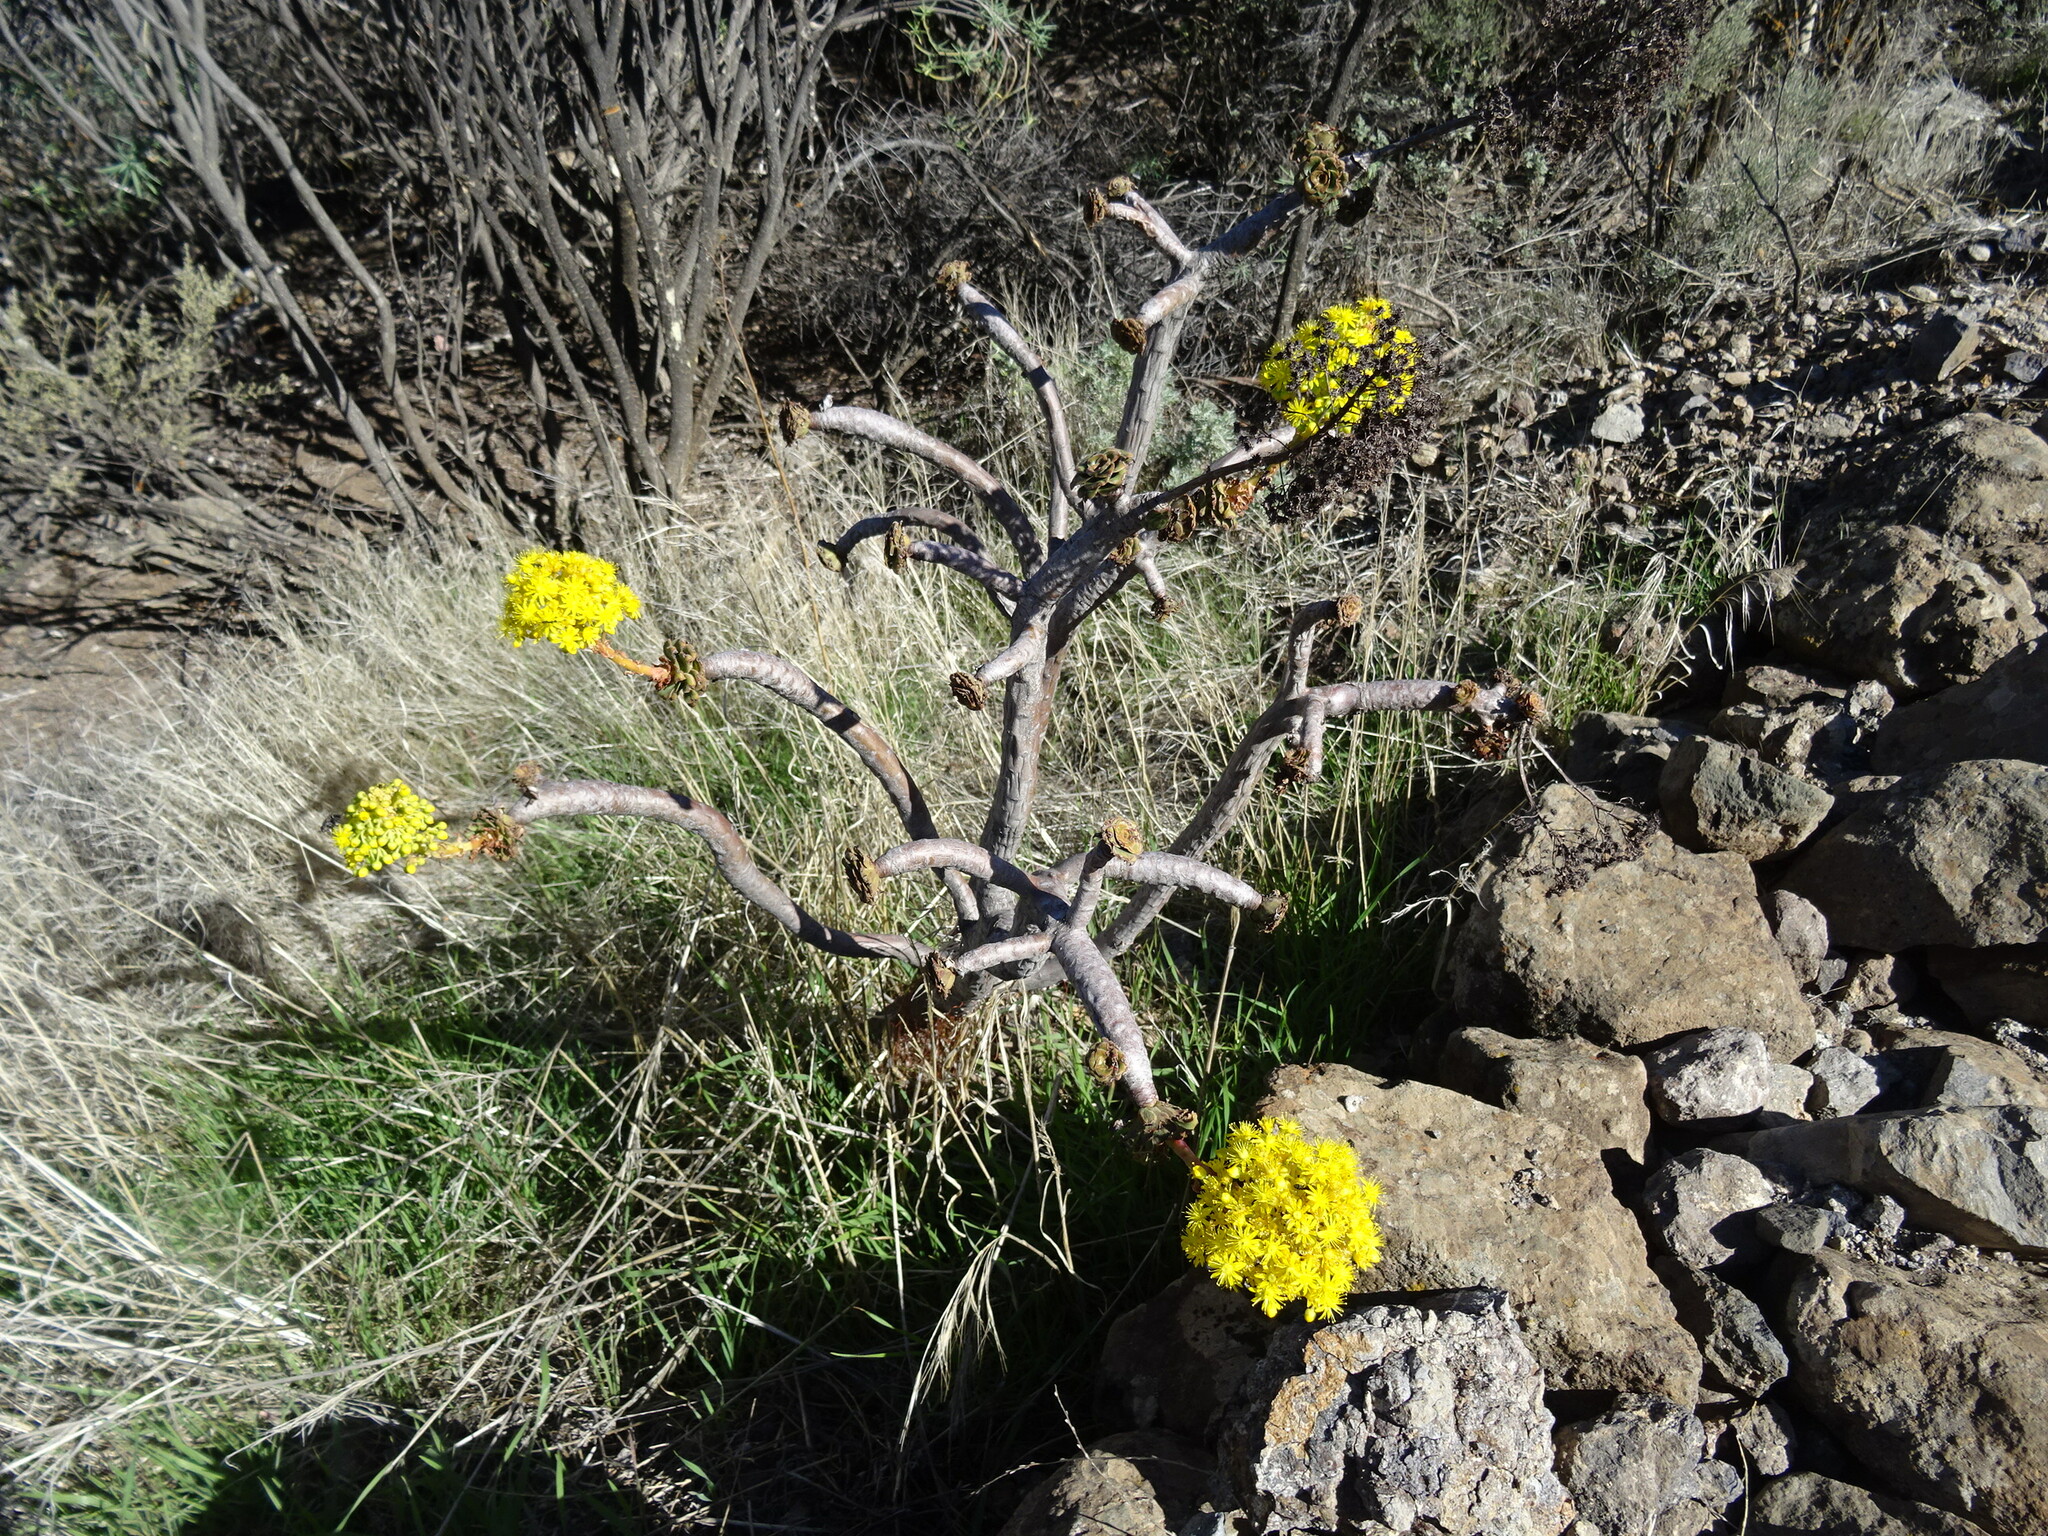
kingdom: Plantae
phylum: Tracheophyta
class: Magnoliopsida
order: Saxifragales
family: Crassulaceae
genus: Aeonium
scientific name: Aeonium arboreum
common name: Tree aeonium
